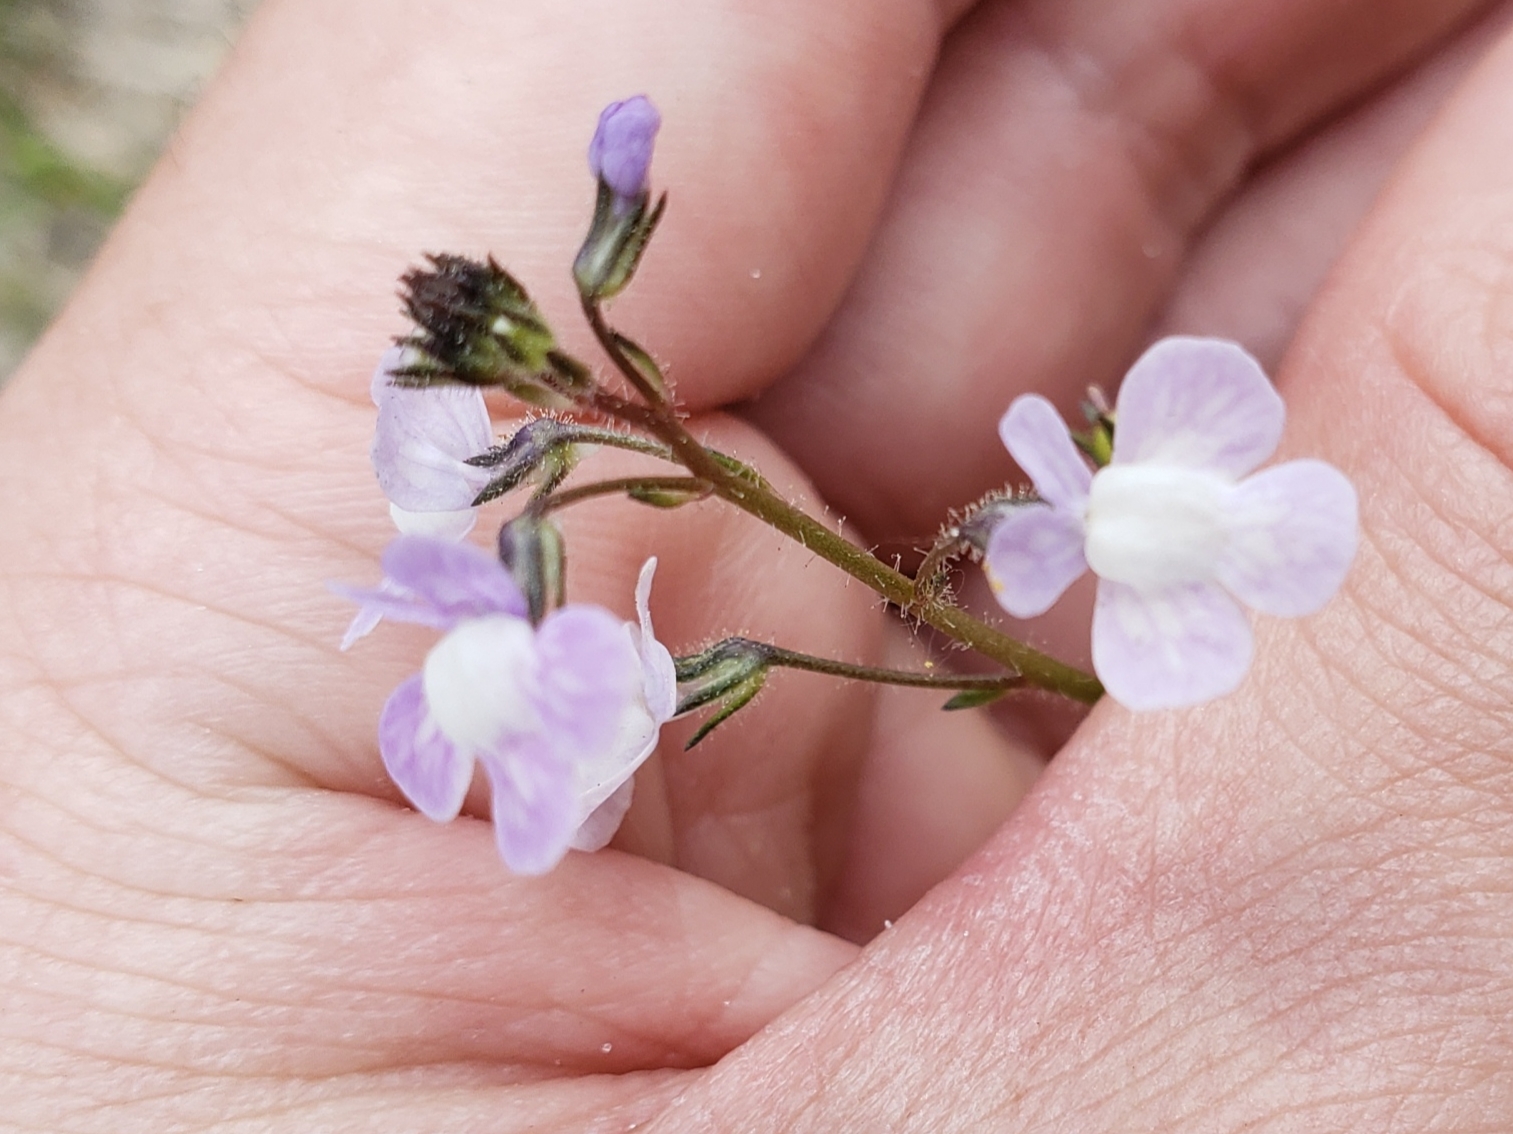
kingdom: Plantae
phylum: Tracheophyta
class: Magnoliopsida
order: Lamiales
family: Plantaginaceae
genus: Nuttallanthus
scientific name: Nuttallanthus floridanus
